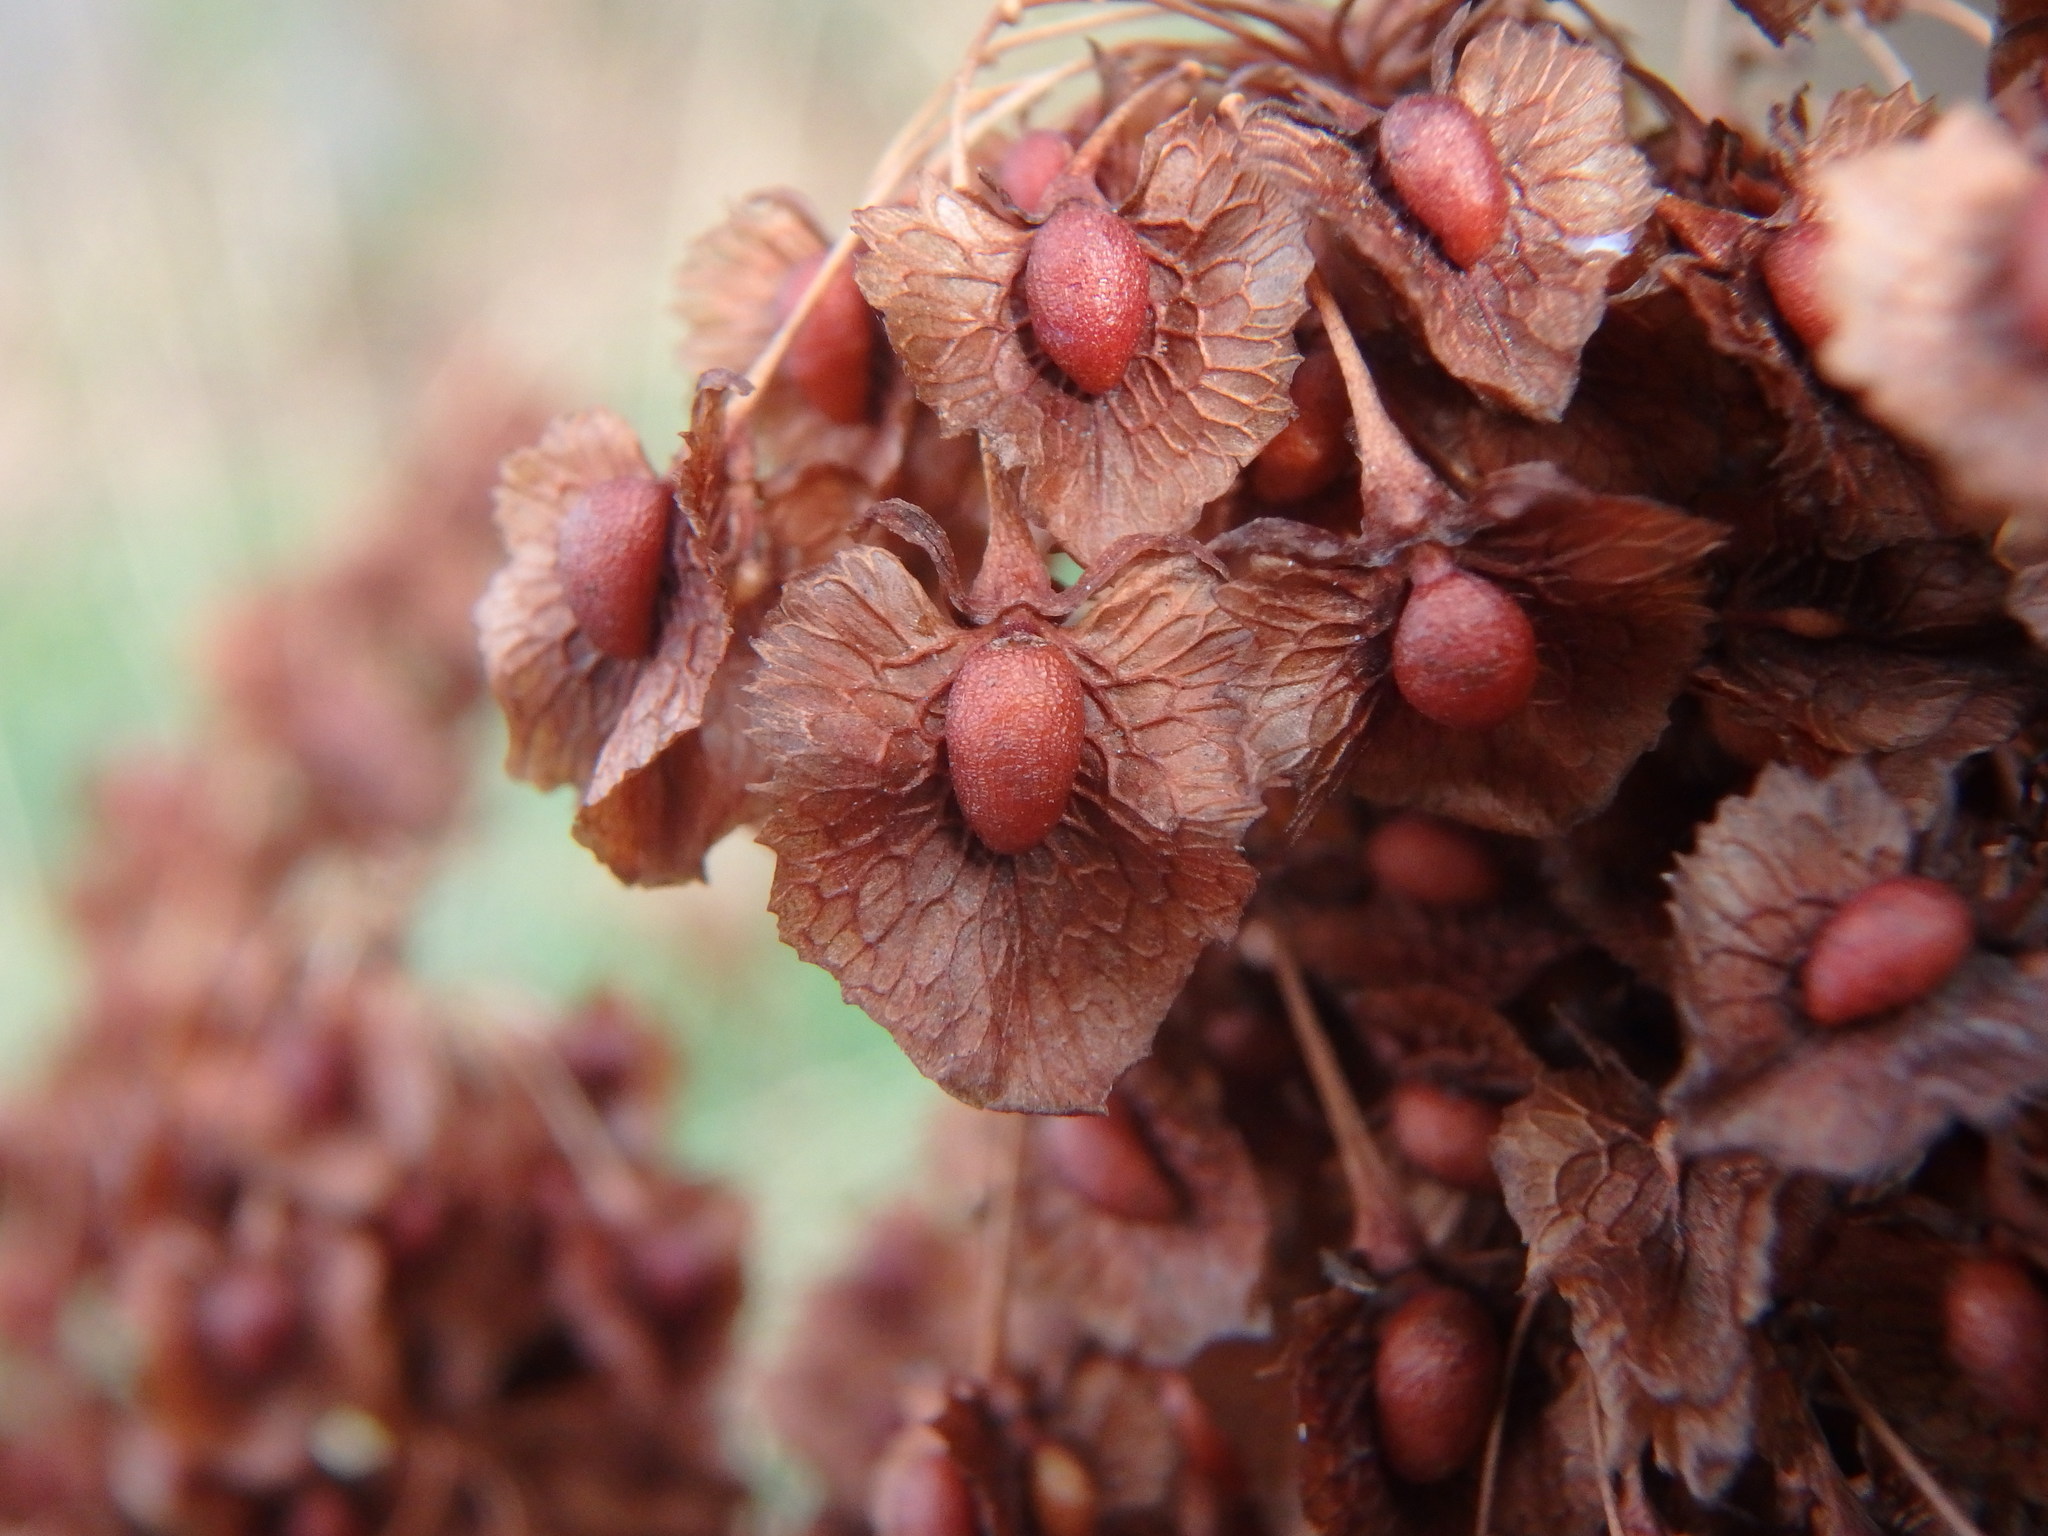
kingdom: Plantae
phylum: Tracheophyta
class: Magnoliopsida
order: Caryophyllales
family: Polygonaceae
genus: Rumex
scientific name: Rumex cristatus
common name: Greek dock
